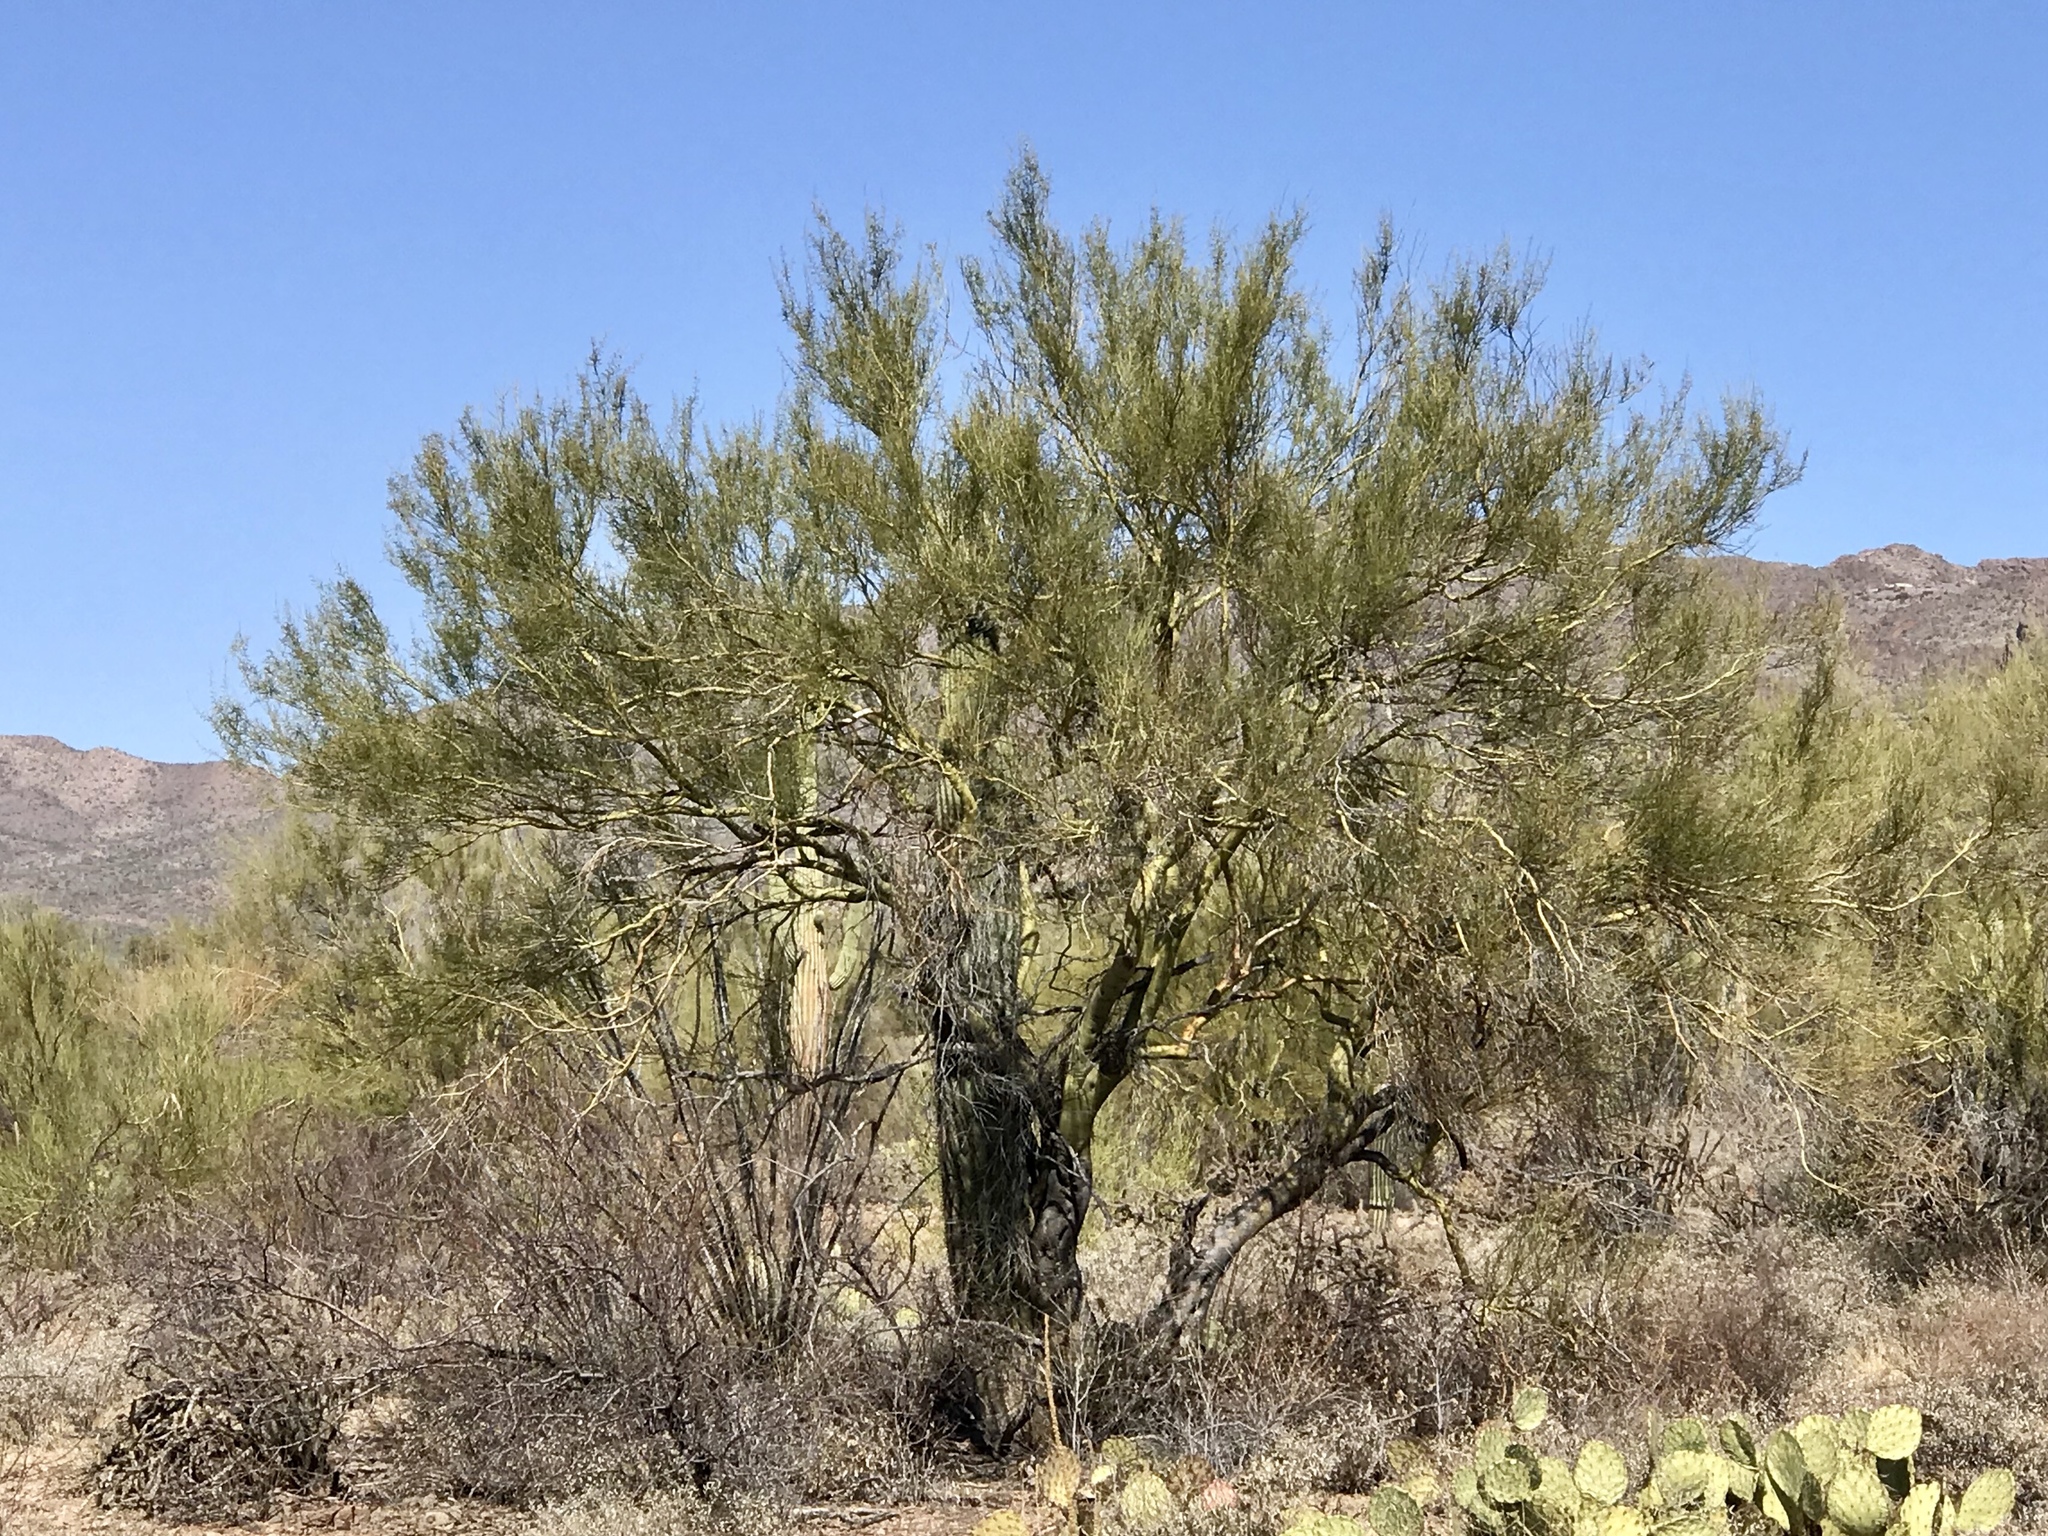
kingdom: Plantae
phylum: Tracheophyta
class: Magnoliopsida
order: Fabales
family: Fabaceae
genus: Parkinsonia
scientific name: Parkinsonia microphylla
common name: Yellow paloverde
